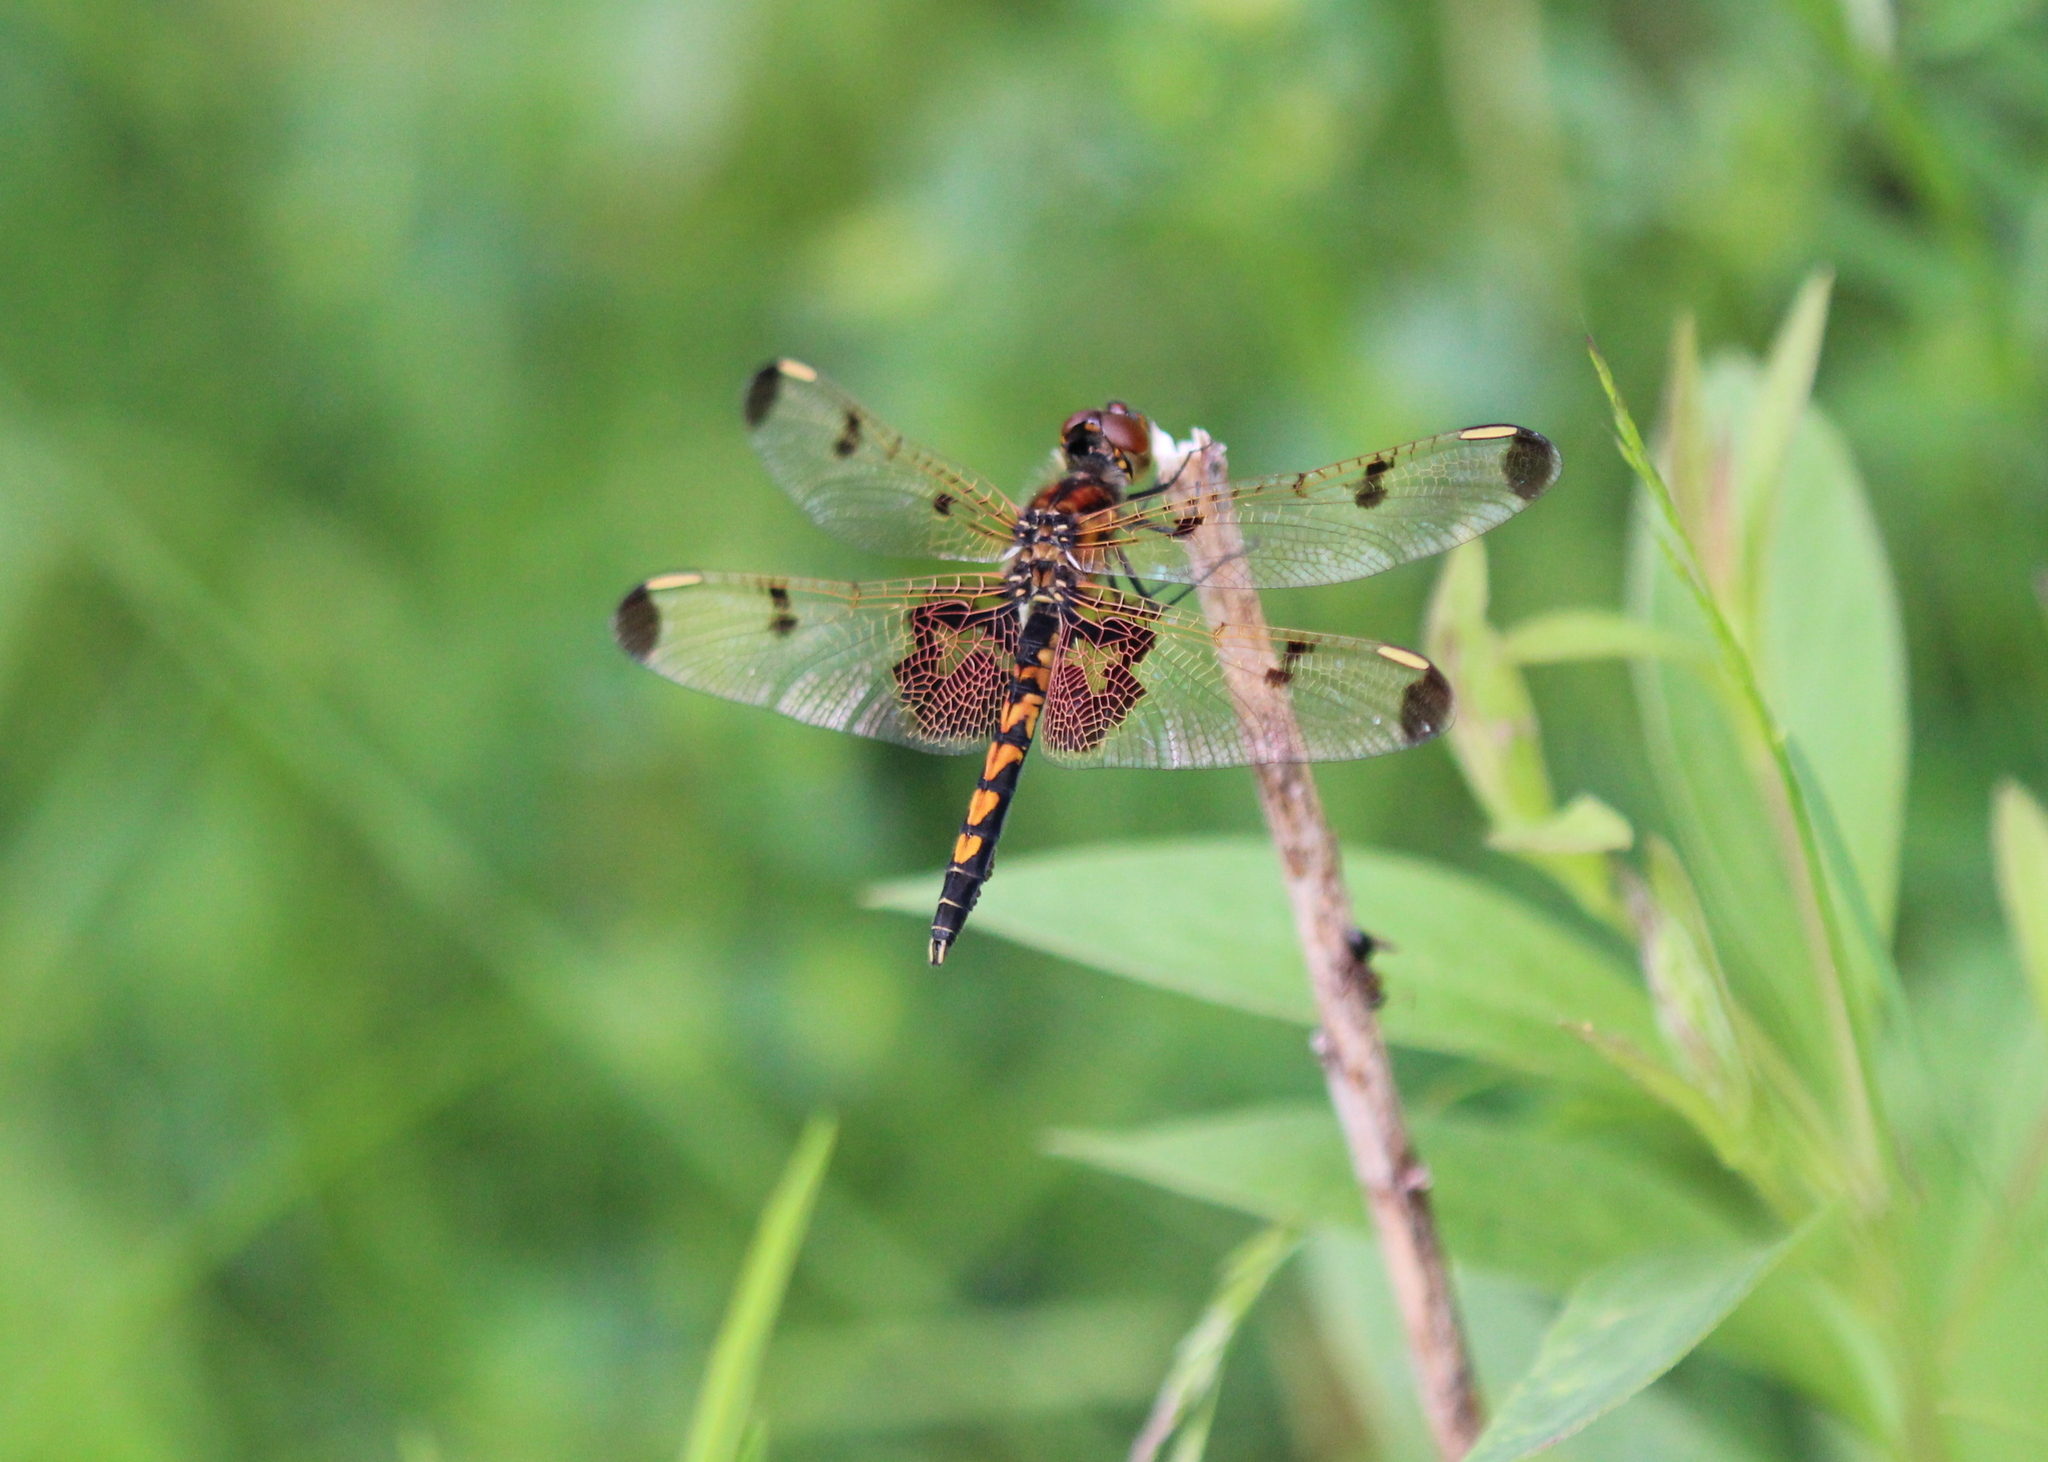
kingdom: Animalia
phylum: Arthropoda
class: Insecta
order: Odonata
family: Libellulidae
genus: Celithemis
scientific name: Celithemis elisa
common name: Calico pennant
